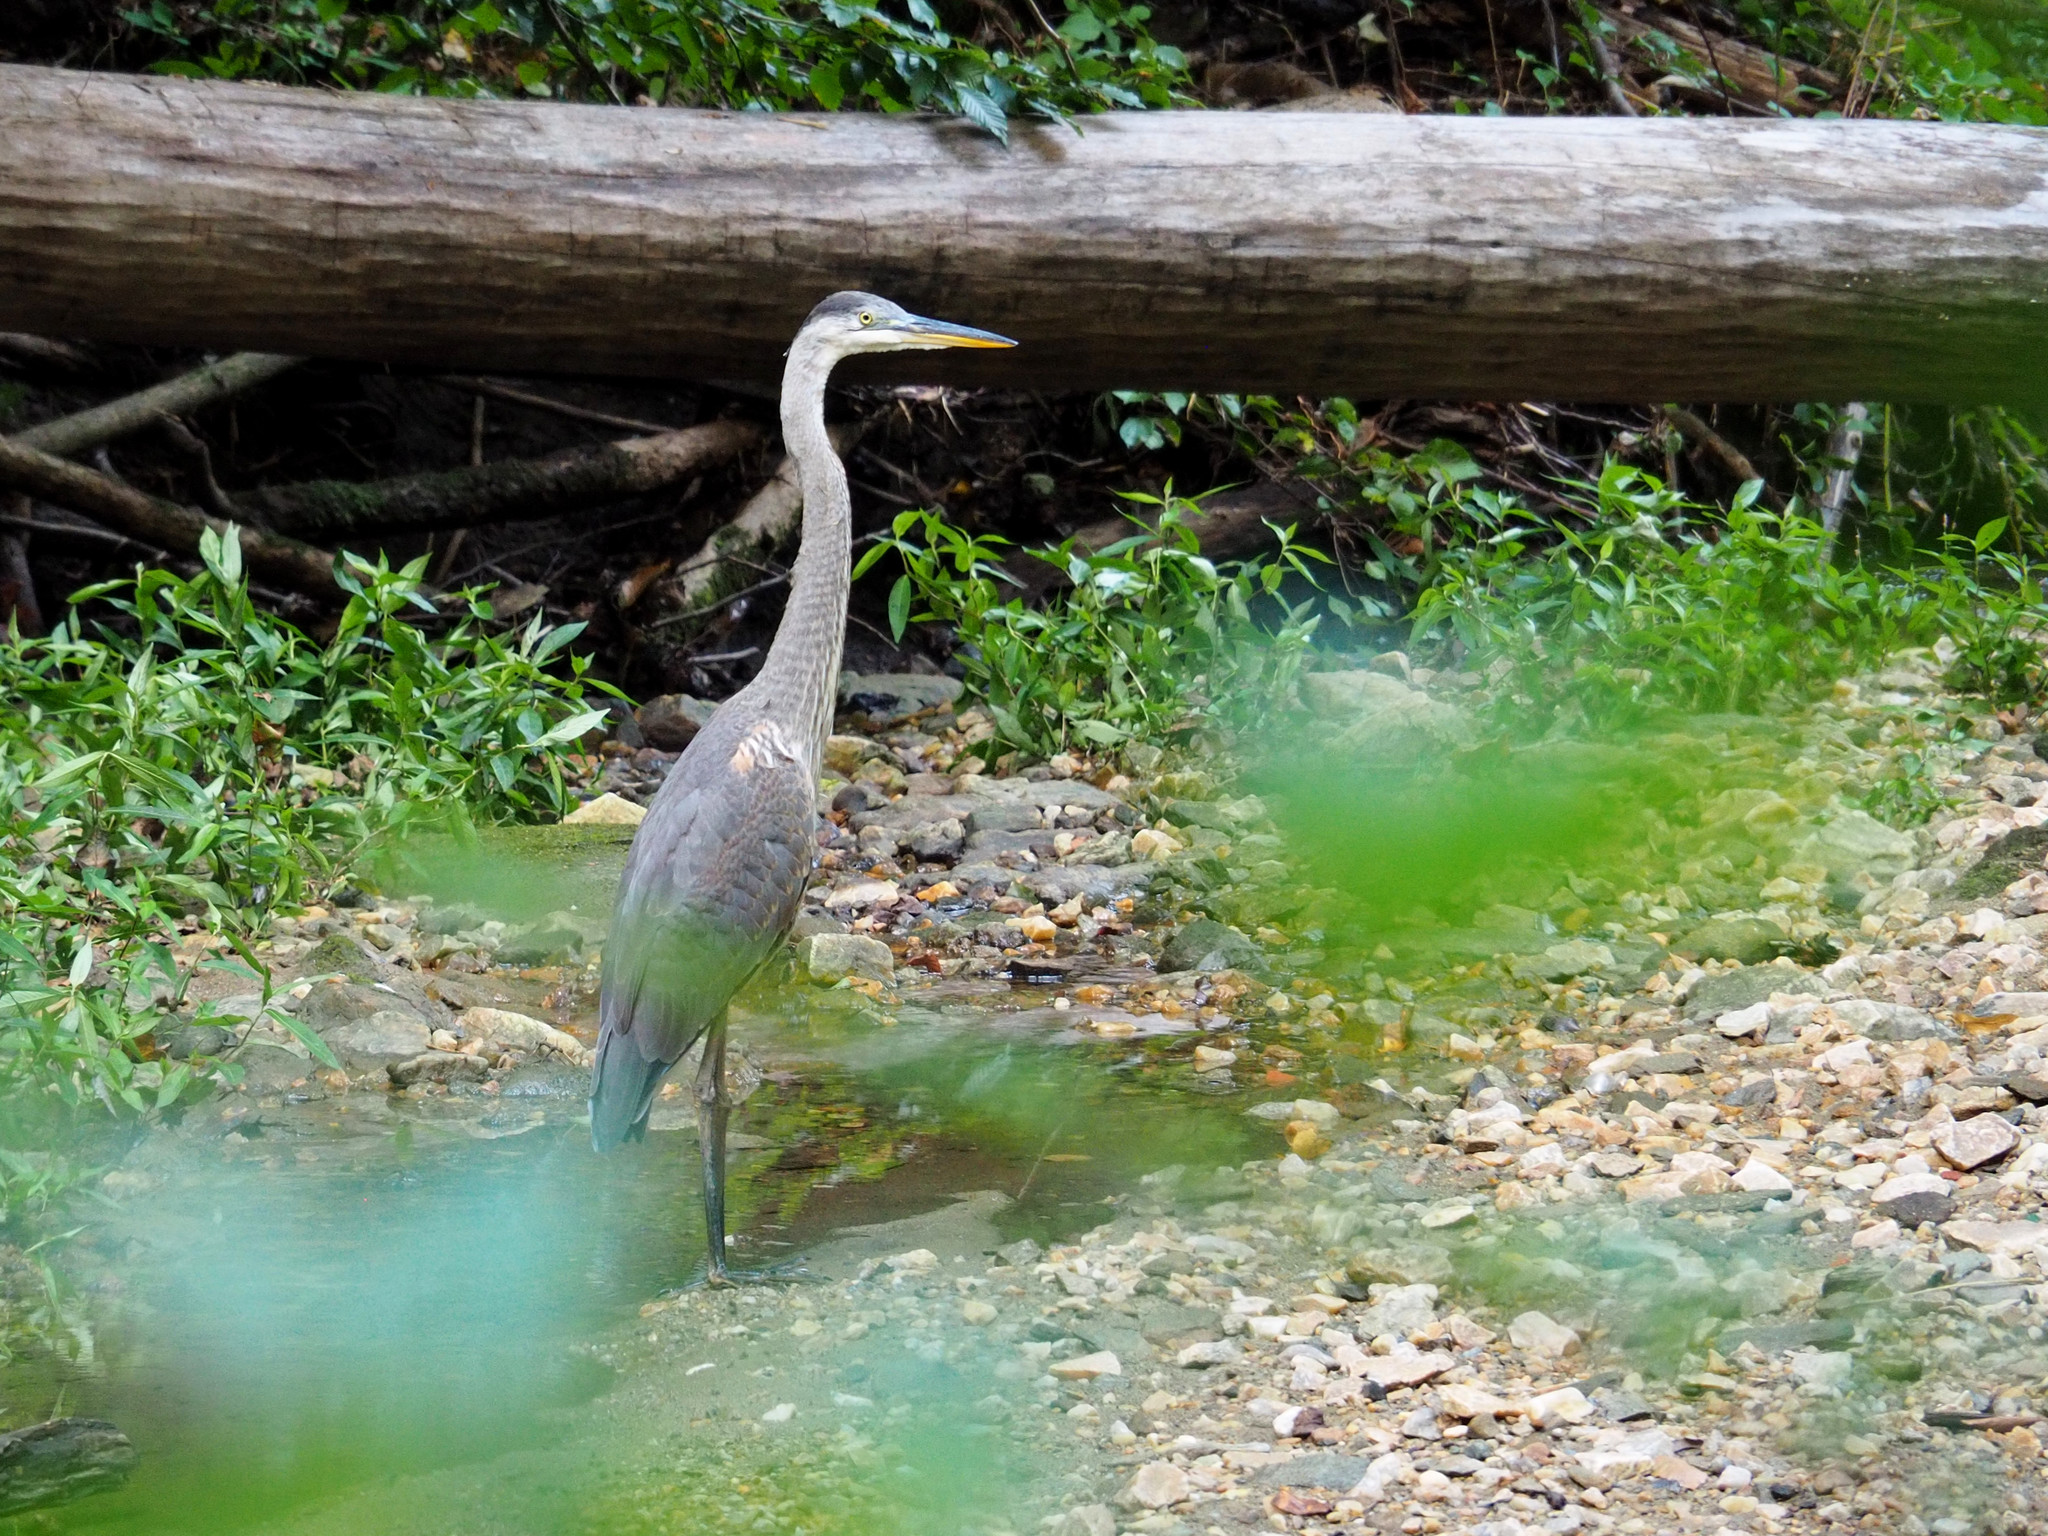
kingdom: Animalia
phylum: Chordata
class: Aves
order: Pelecaniformes
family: Ardeidae
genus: Ardea
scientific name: Ardea herodias
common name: Great blue heron
